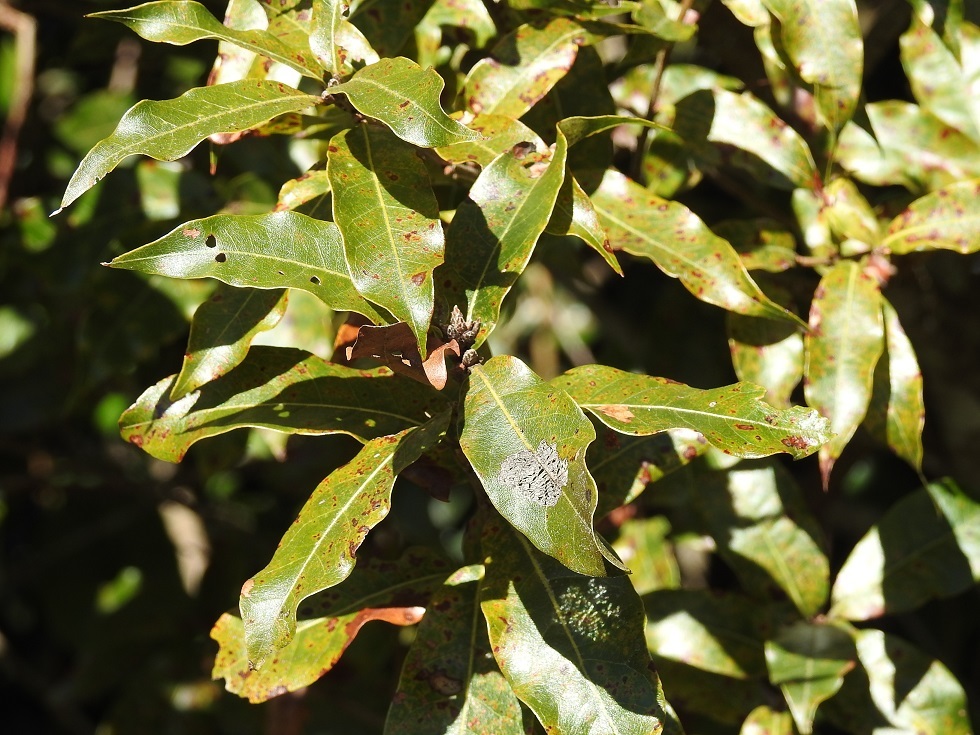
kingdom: Plantae
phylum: Tracheophyta
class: Magnoliopsida
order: Fagales
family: Fagaceae
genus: Quercus
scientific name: Quercus laurina
